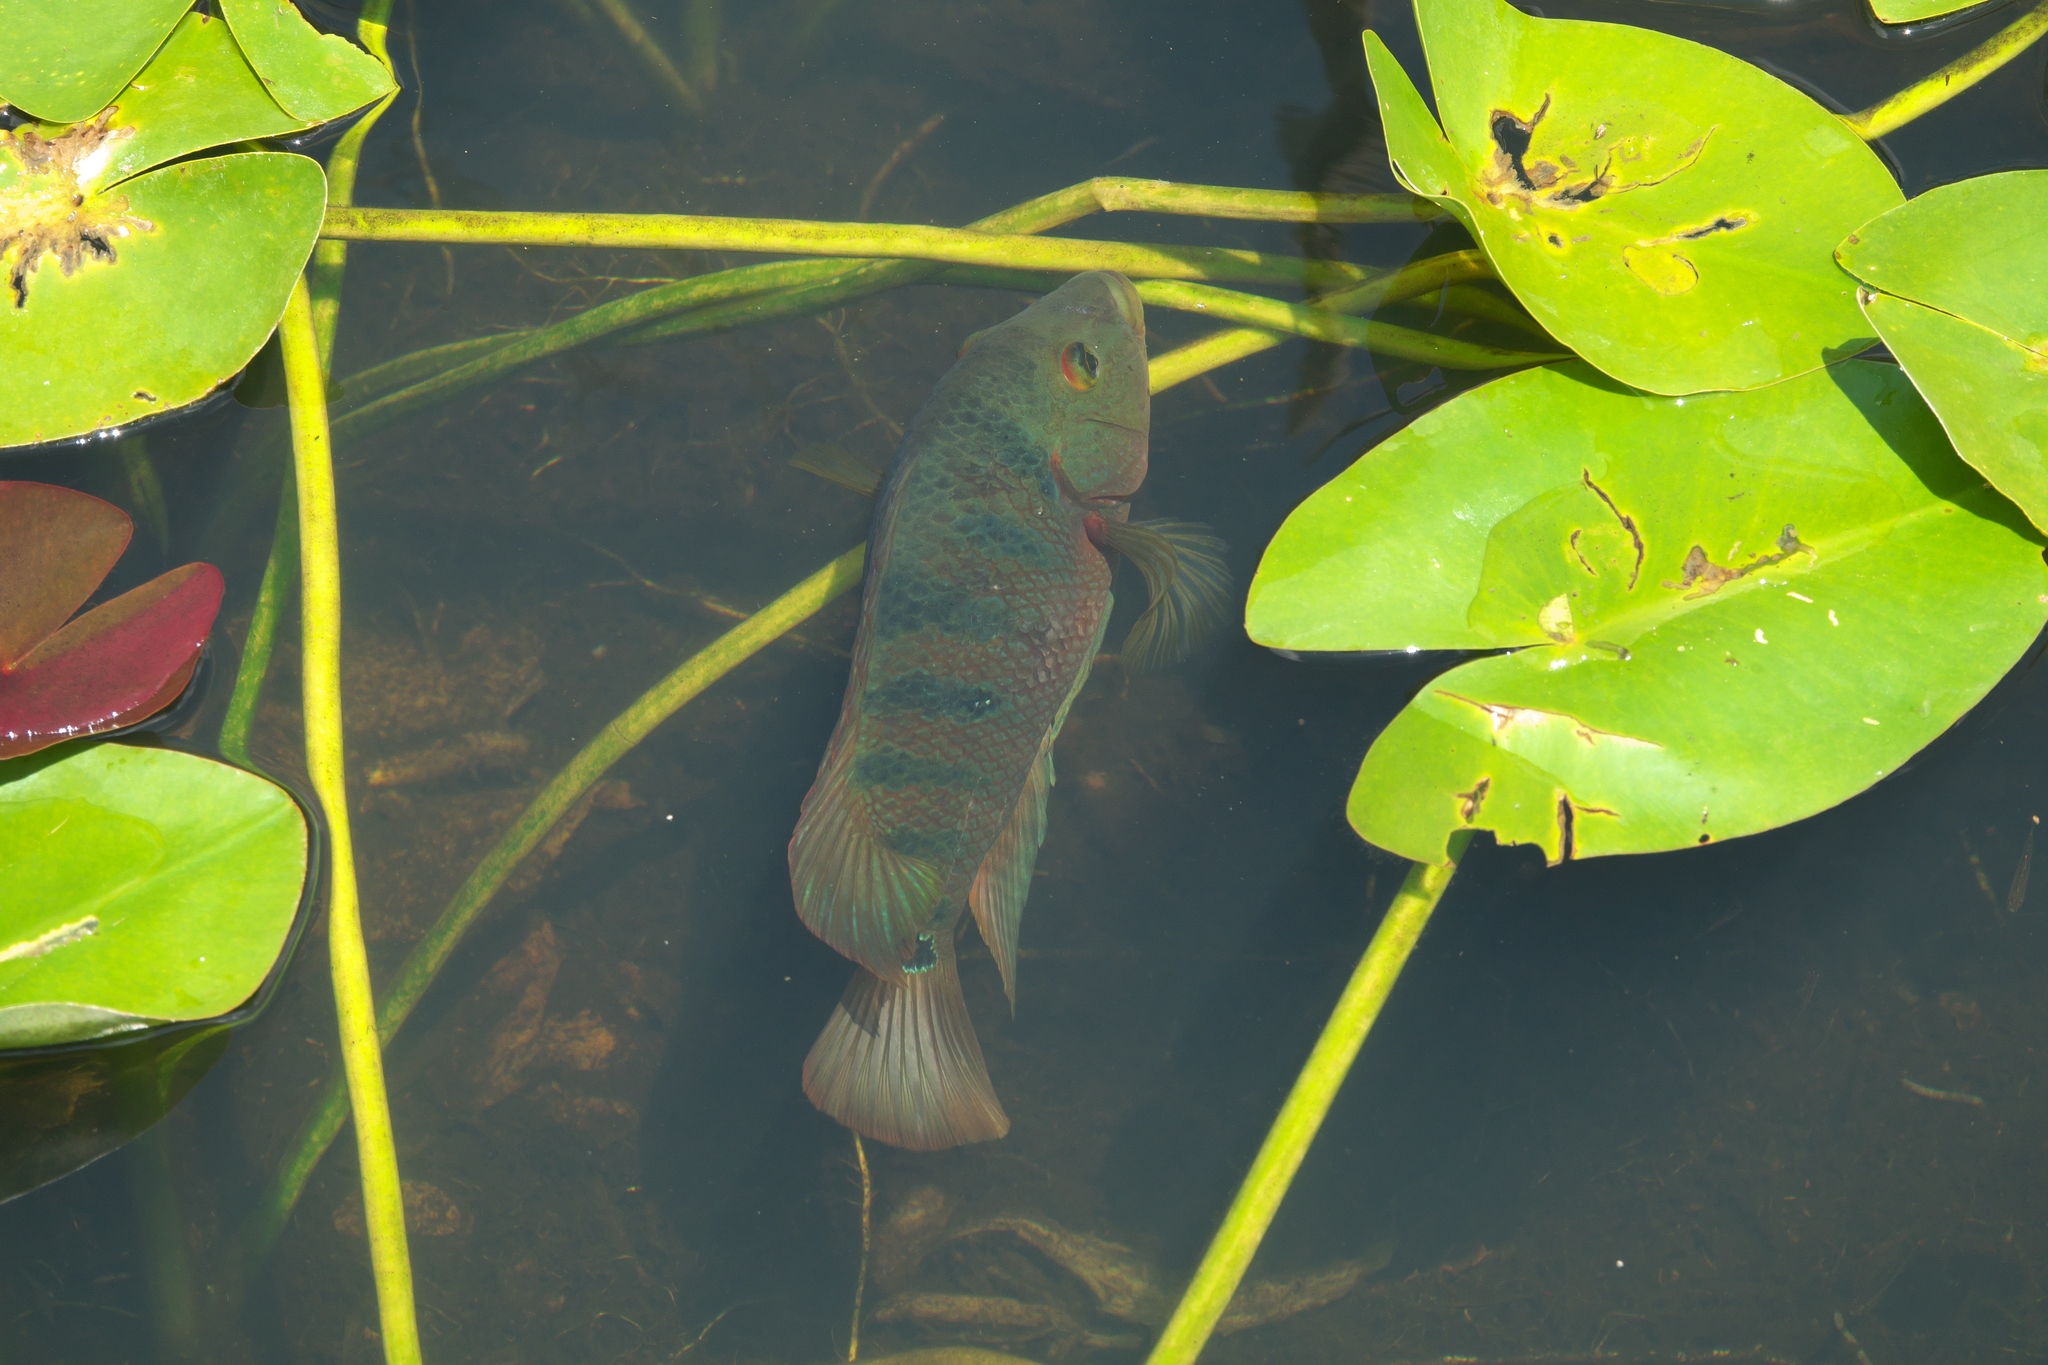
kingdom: Animalia
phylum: Chordata
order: Perciformes
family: Cichlidae
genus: Mayaheros
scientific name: Mayaheros urophthalmus
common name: Mayan cichlid
